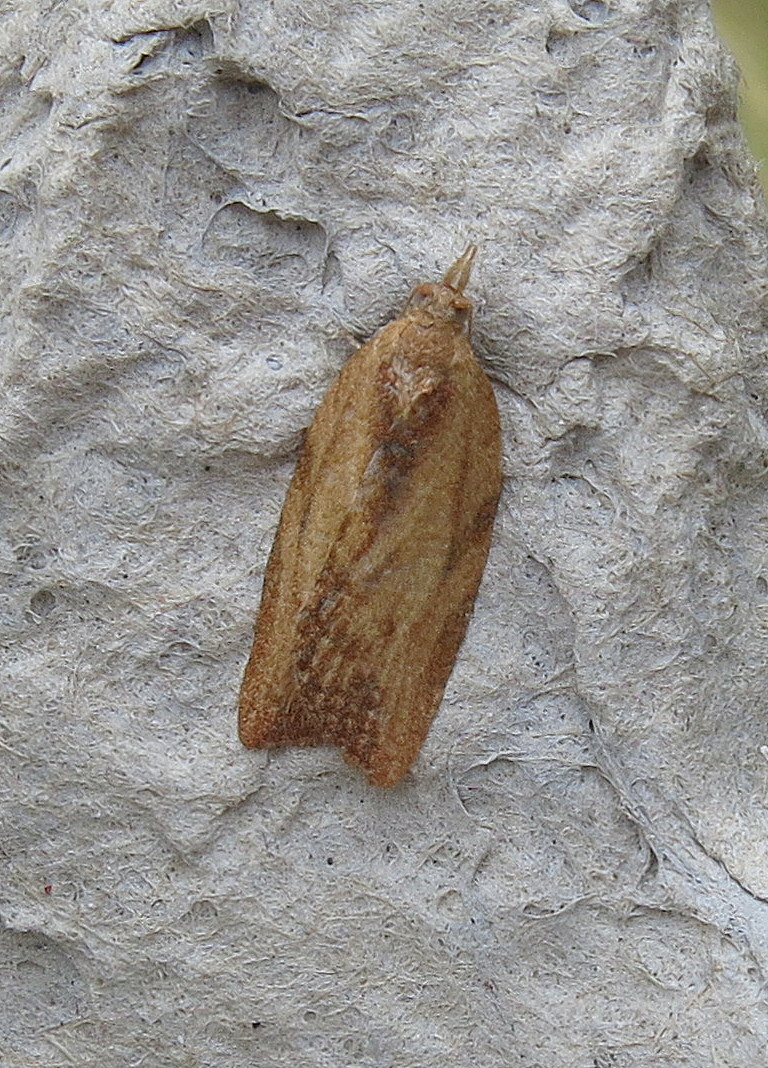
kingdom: Animalia
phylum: Arthropoda
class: Insecta
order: Lepidoptera
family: Tortricidae
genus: Epiphyas
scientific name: Epiphyas postvittana
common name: Light brown apple moth
